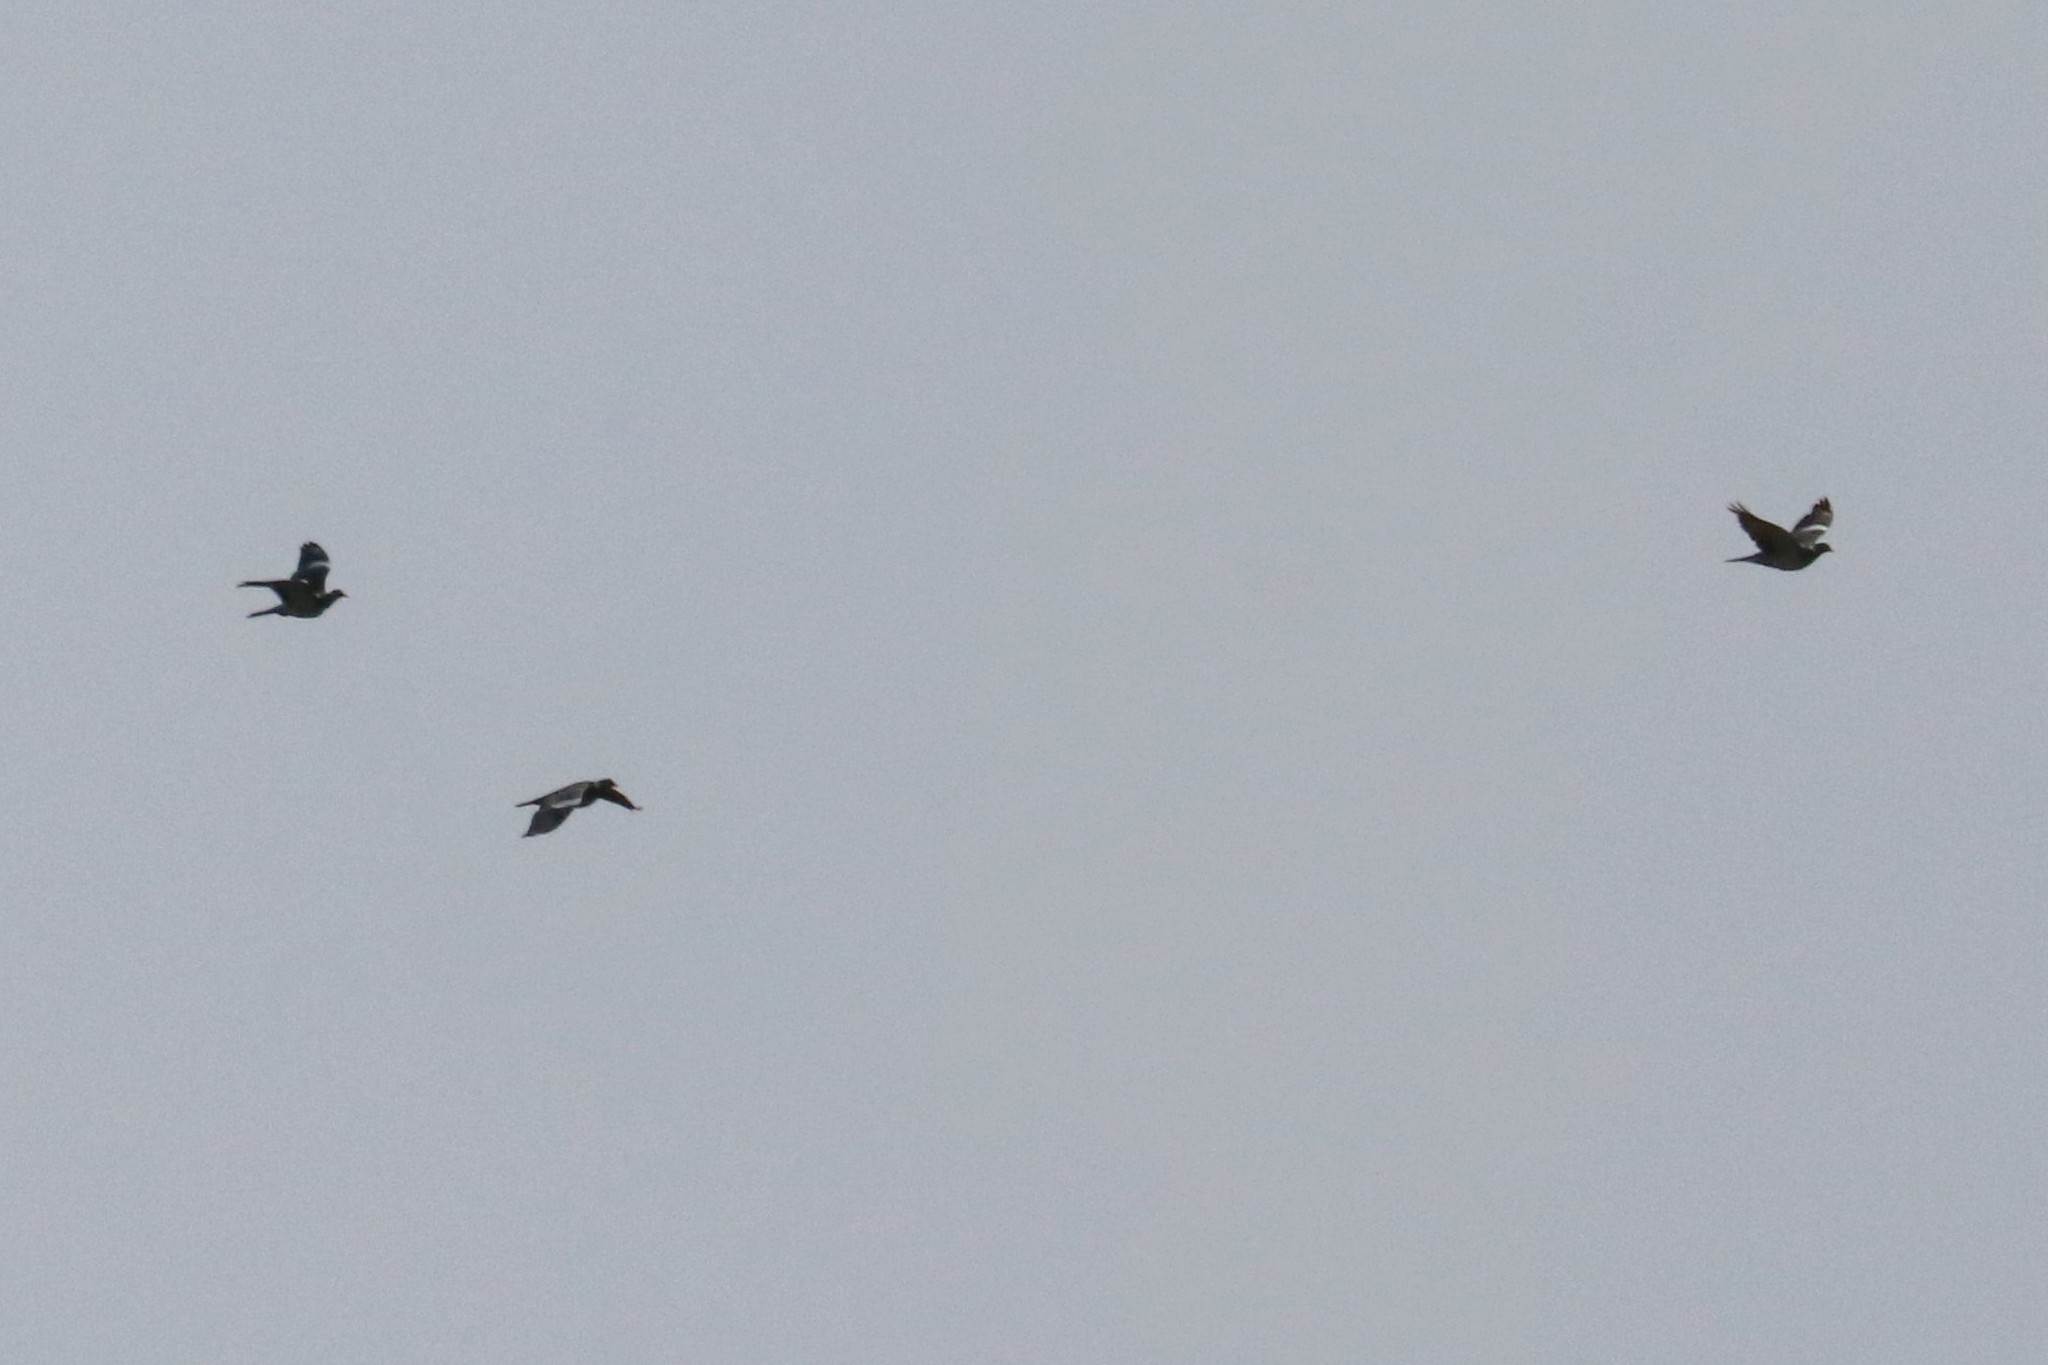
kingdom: Animalia
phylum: Chordata
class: Aves
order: Columbiformes
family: Columbidae
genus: Columba
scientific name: Columba palumbus
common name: Common wood pigeon
